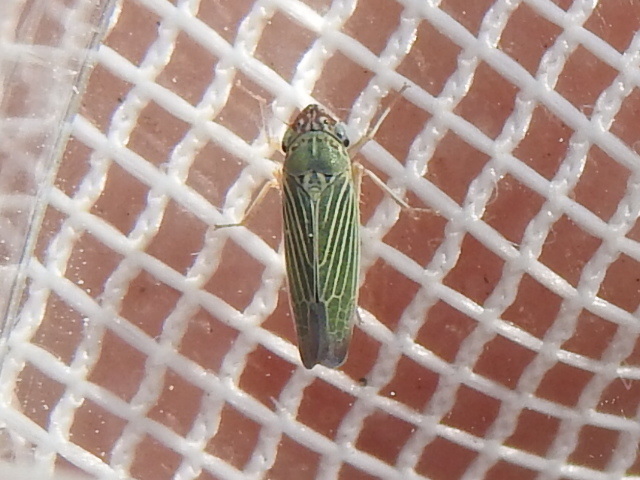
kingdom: Animalia
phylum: Arthropoda
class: Insecta
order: Hemiptera
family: Cicadellidae
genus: Xyphon
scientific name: Xyphon reticulatum
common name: Planthopper
